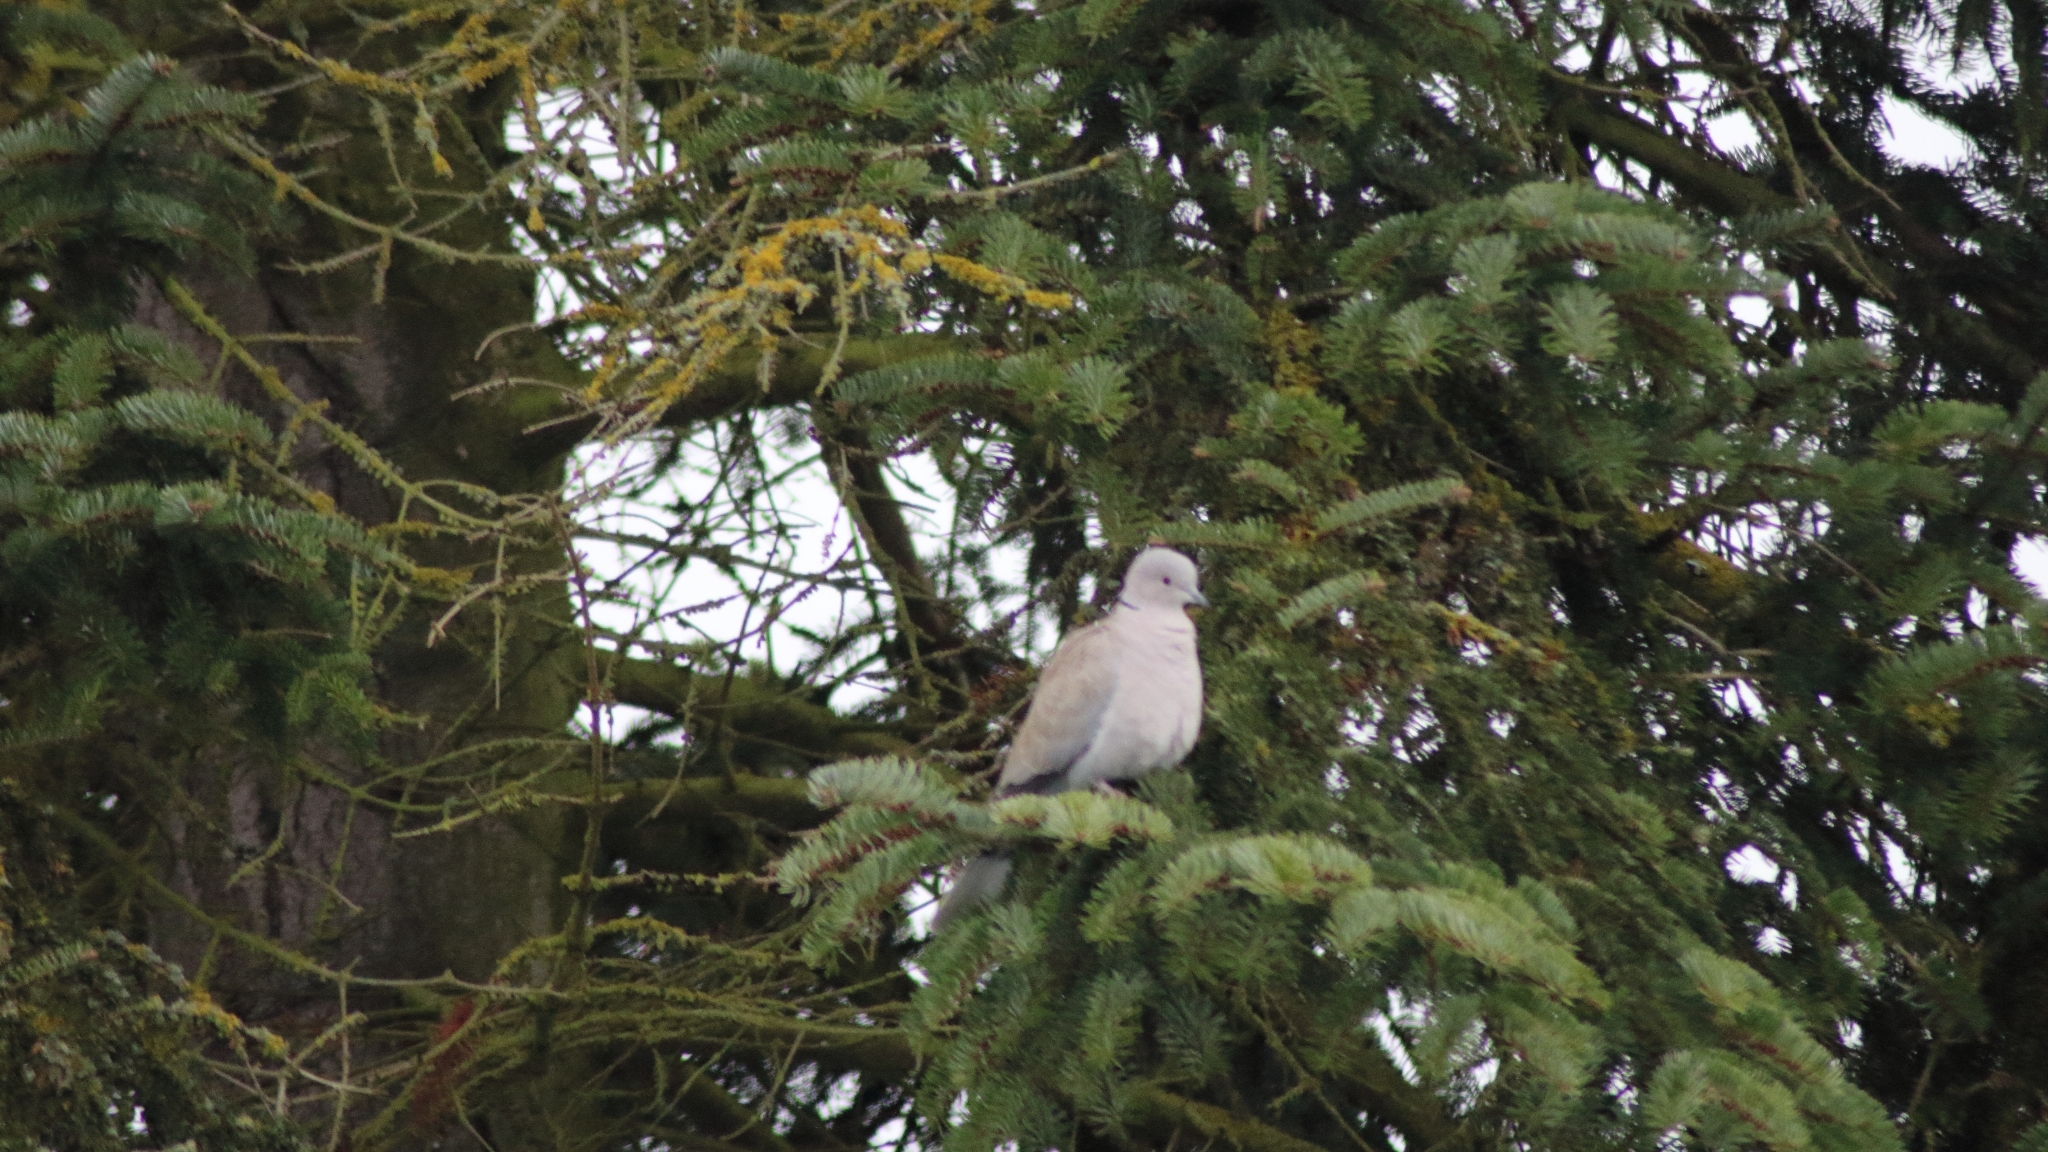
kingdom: Animalia
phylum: Chordata
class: Aves
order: Columbiformes
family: Columbidae
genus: Streptopelia
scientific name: Streptopelia decaocto
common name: Eurasian collared dove
